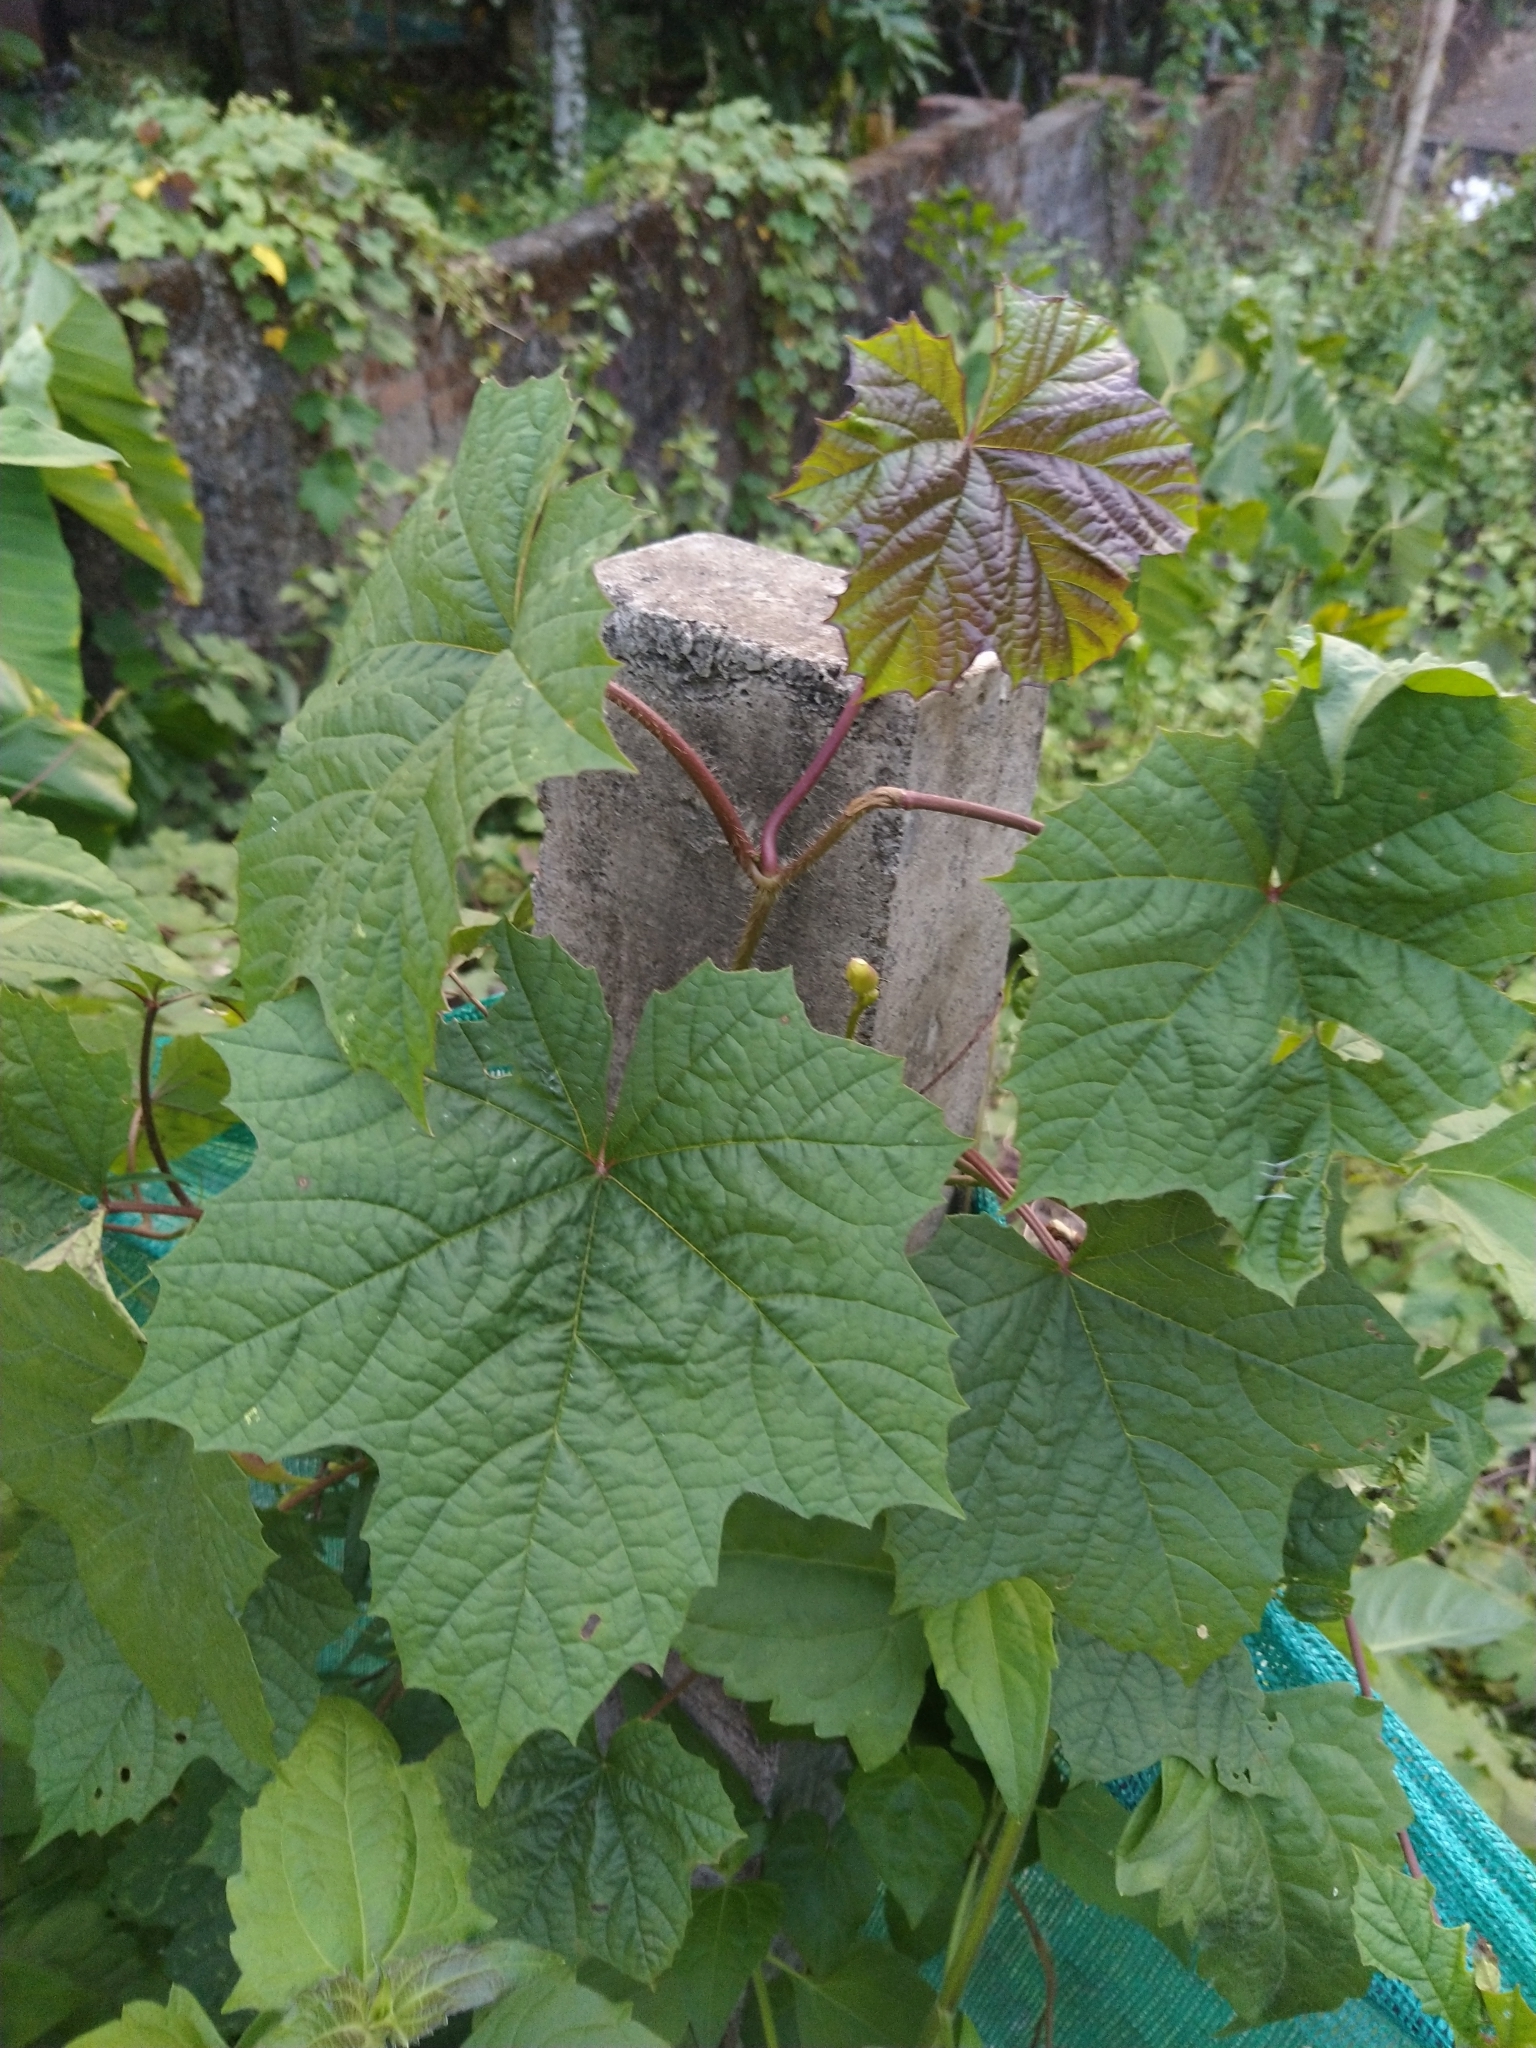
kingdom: Plantae
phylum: Tracheophyta
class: Magnoliopsida
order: Solanales
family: Convolvulaceae
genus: Distimake
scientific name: Distimake
